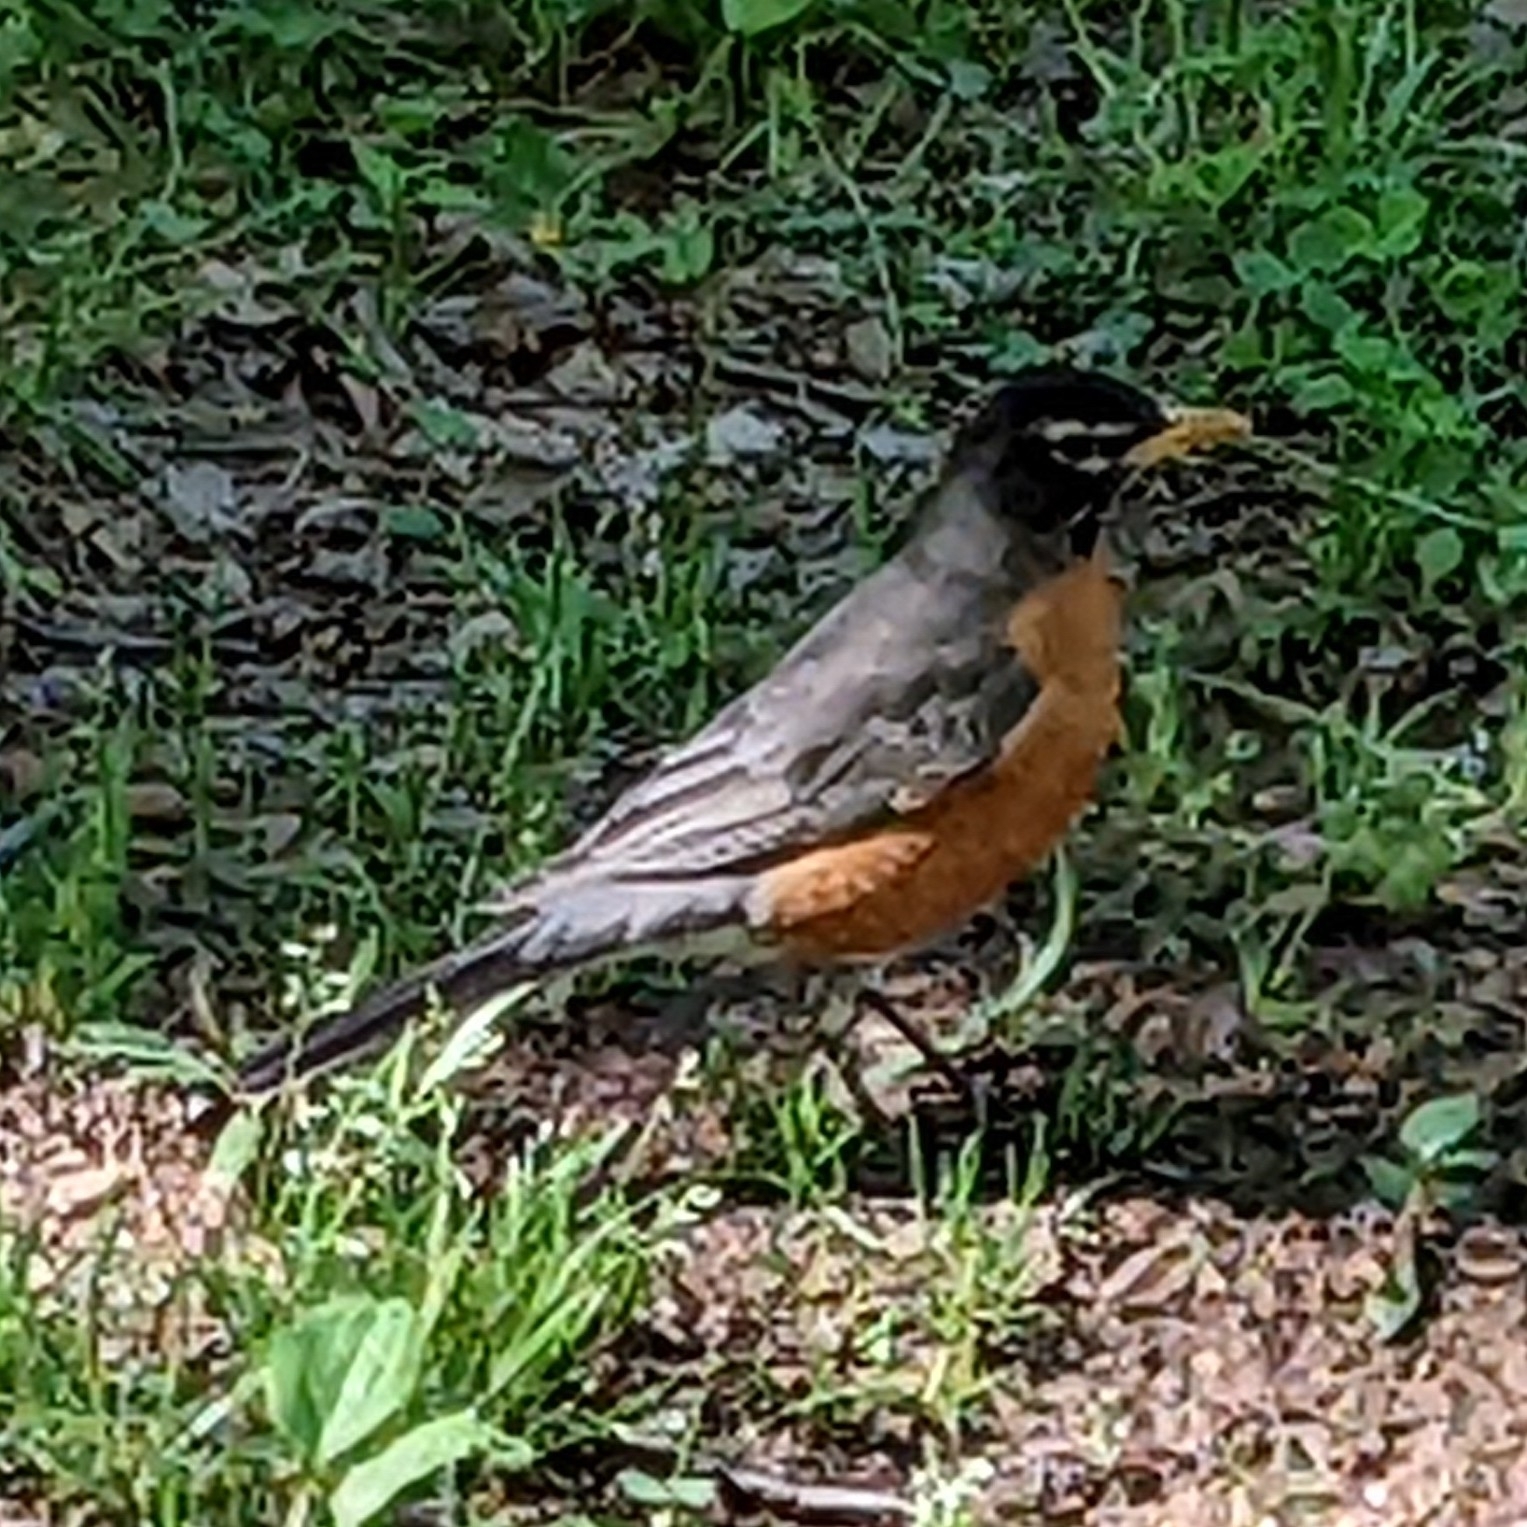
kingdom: Animalia
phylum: Chordata
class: Aves
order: Passeriformes
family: Turdidae
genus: Turdus
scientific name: Turdus migratorius
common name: American robin
